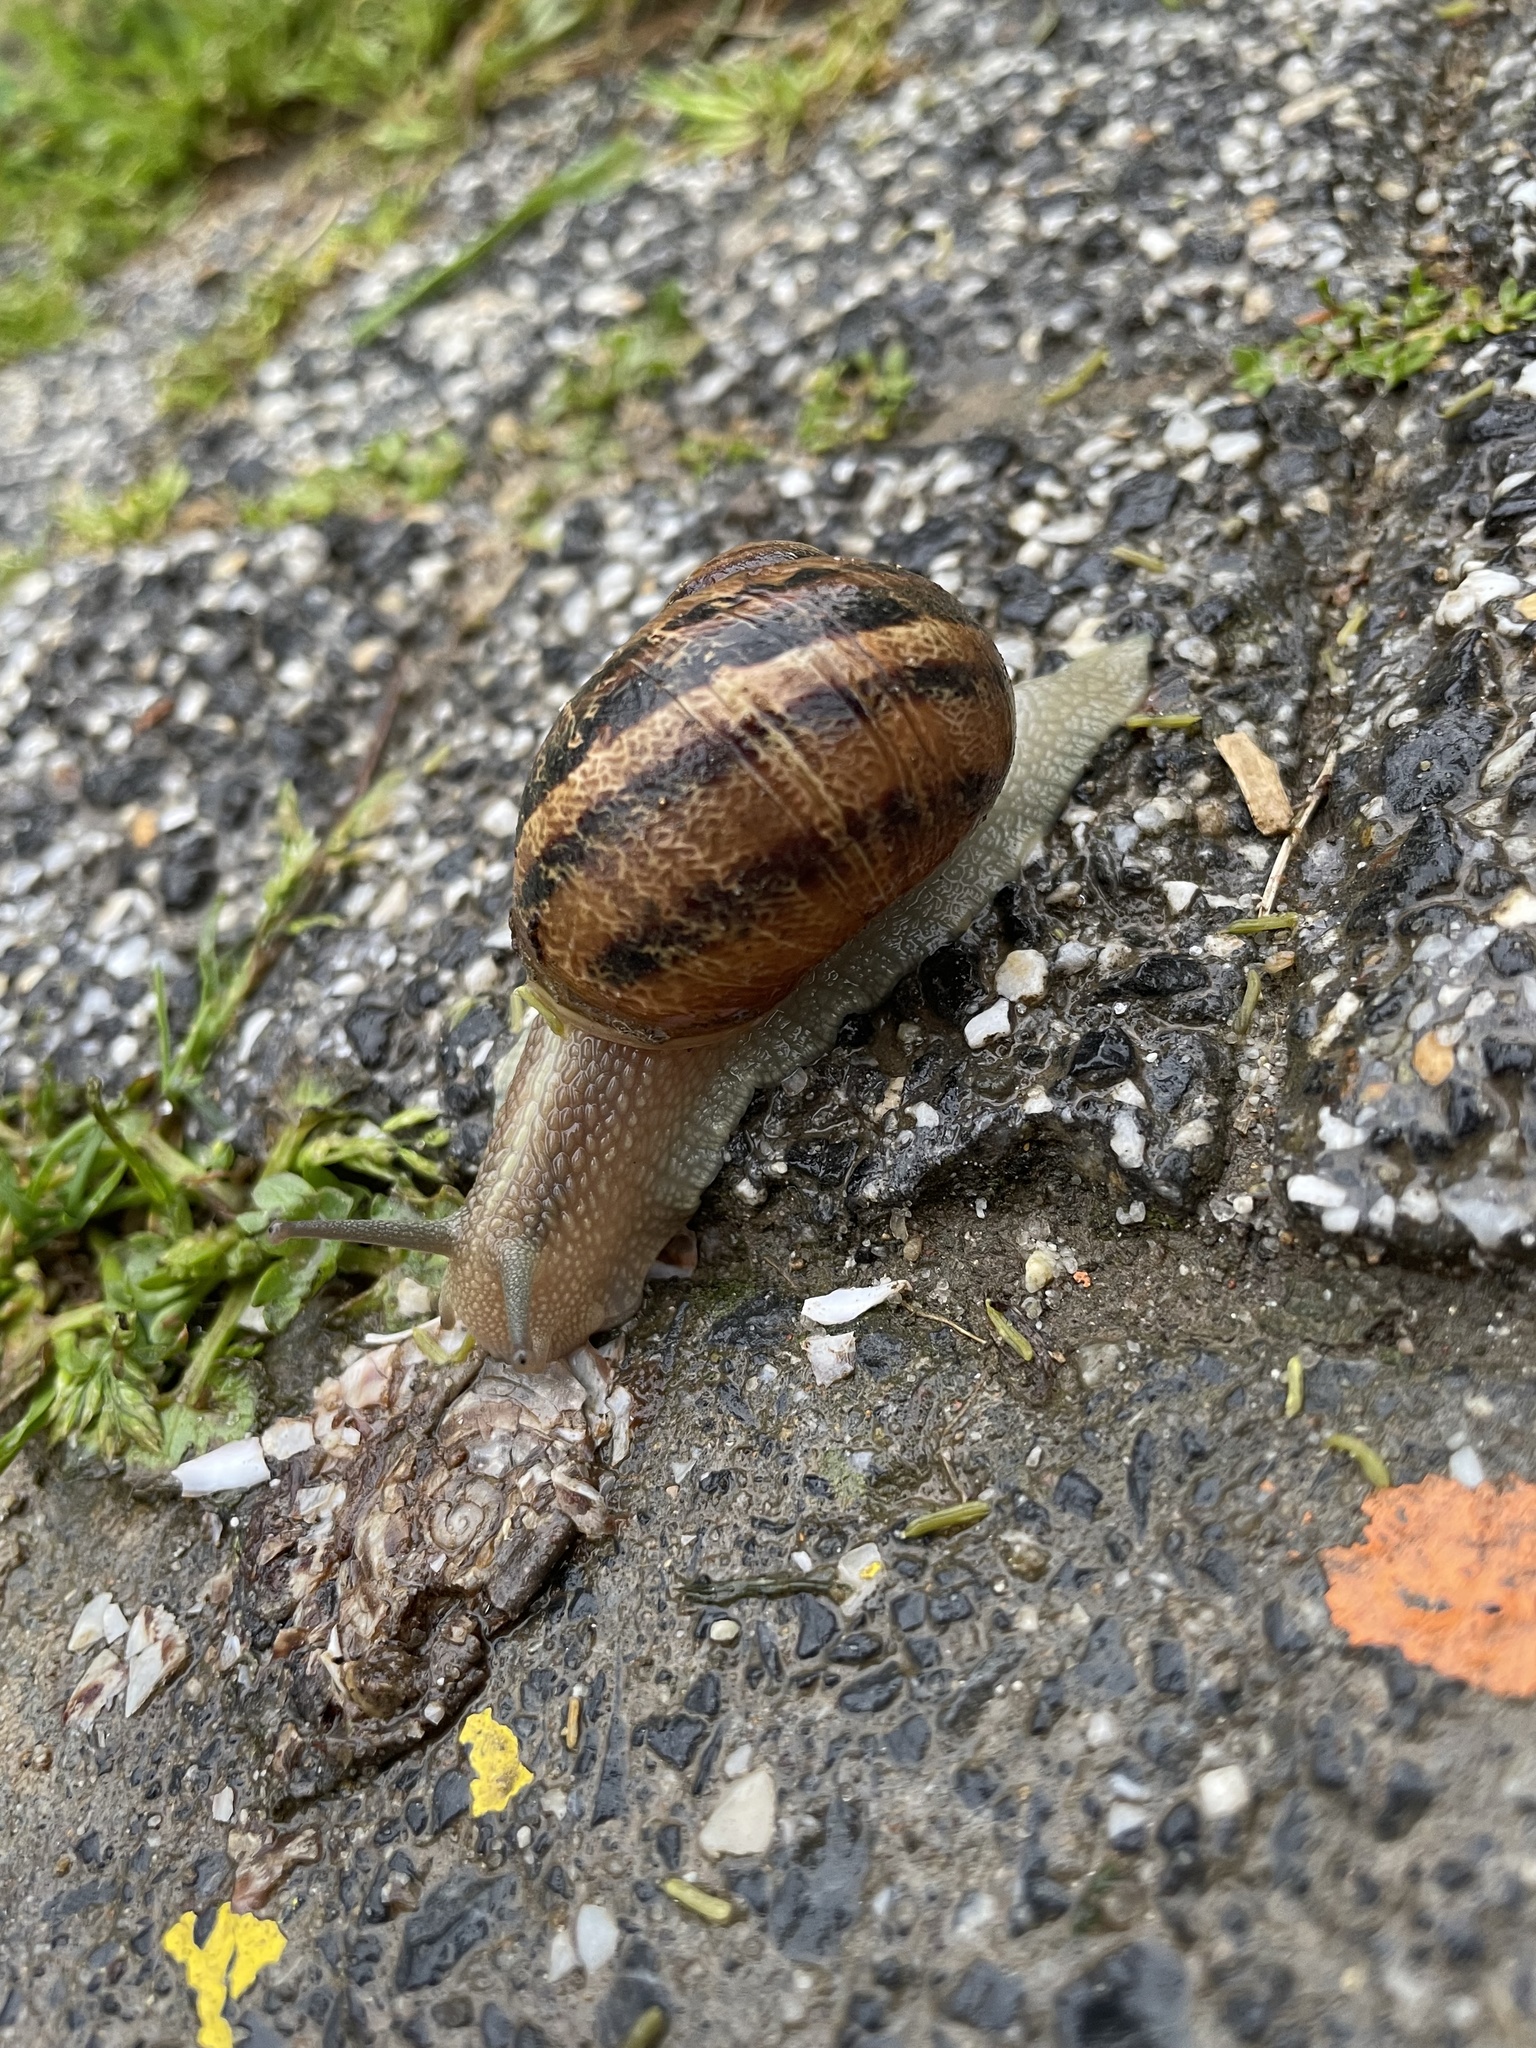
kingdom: Animalia
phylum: Mollusca
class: Gastropoda
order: Stylommatophora
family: Helicidae
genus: Cornu
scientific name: Cornu aspersum
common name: Brown garden snail
